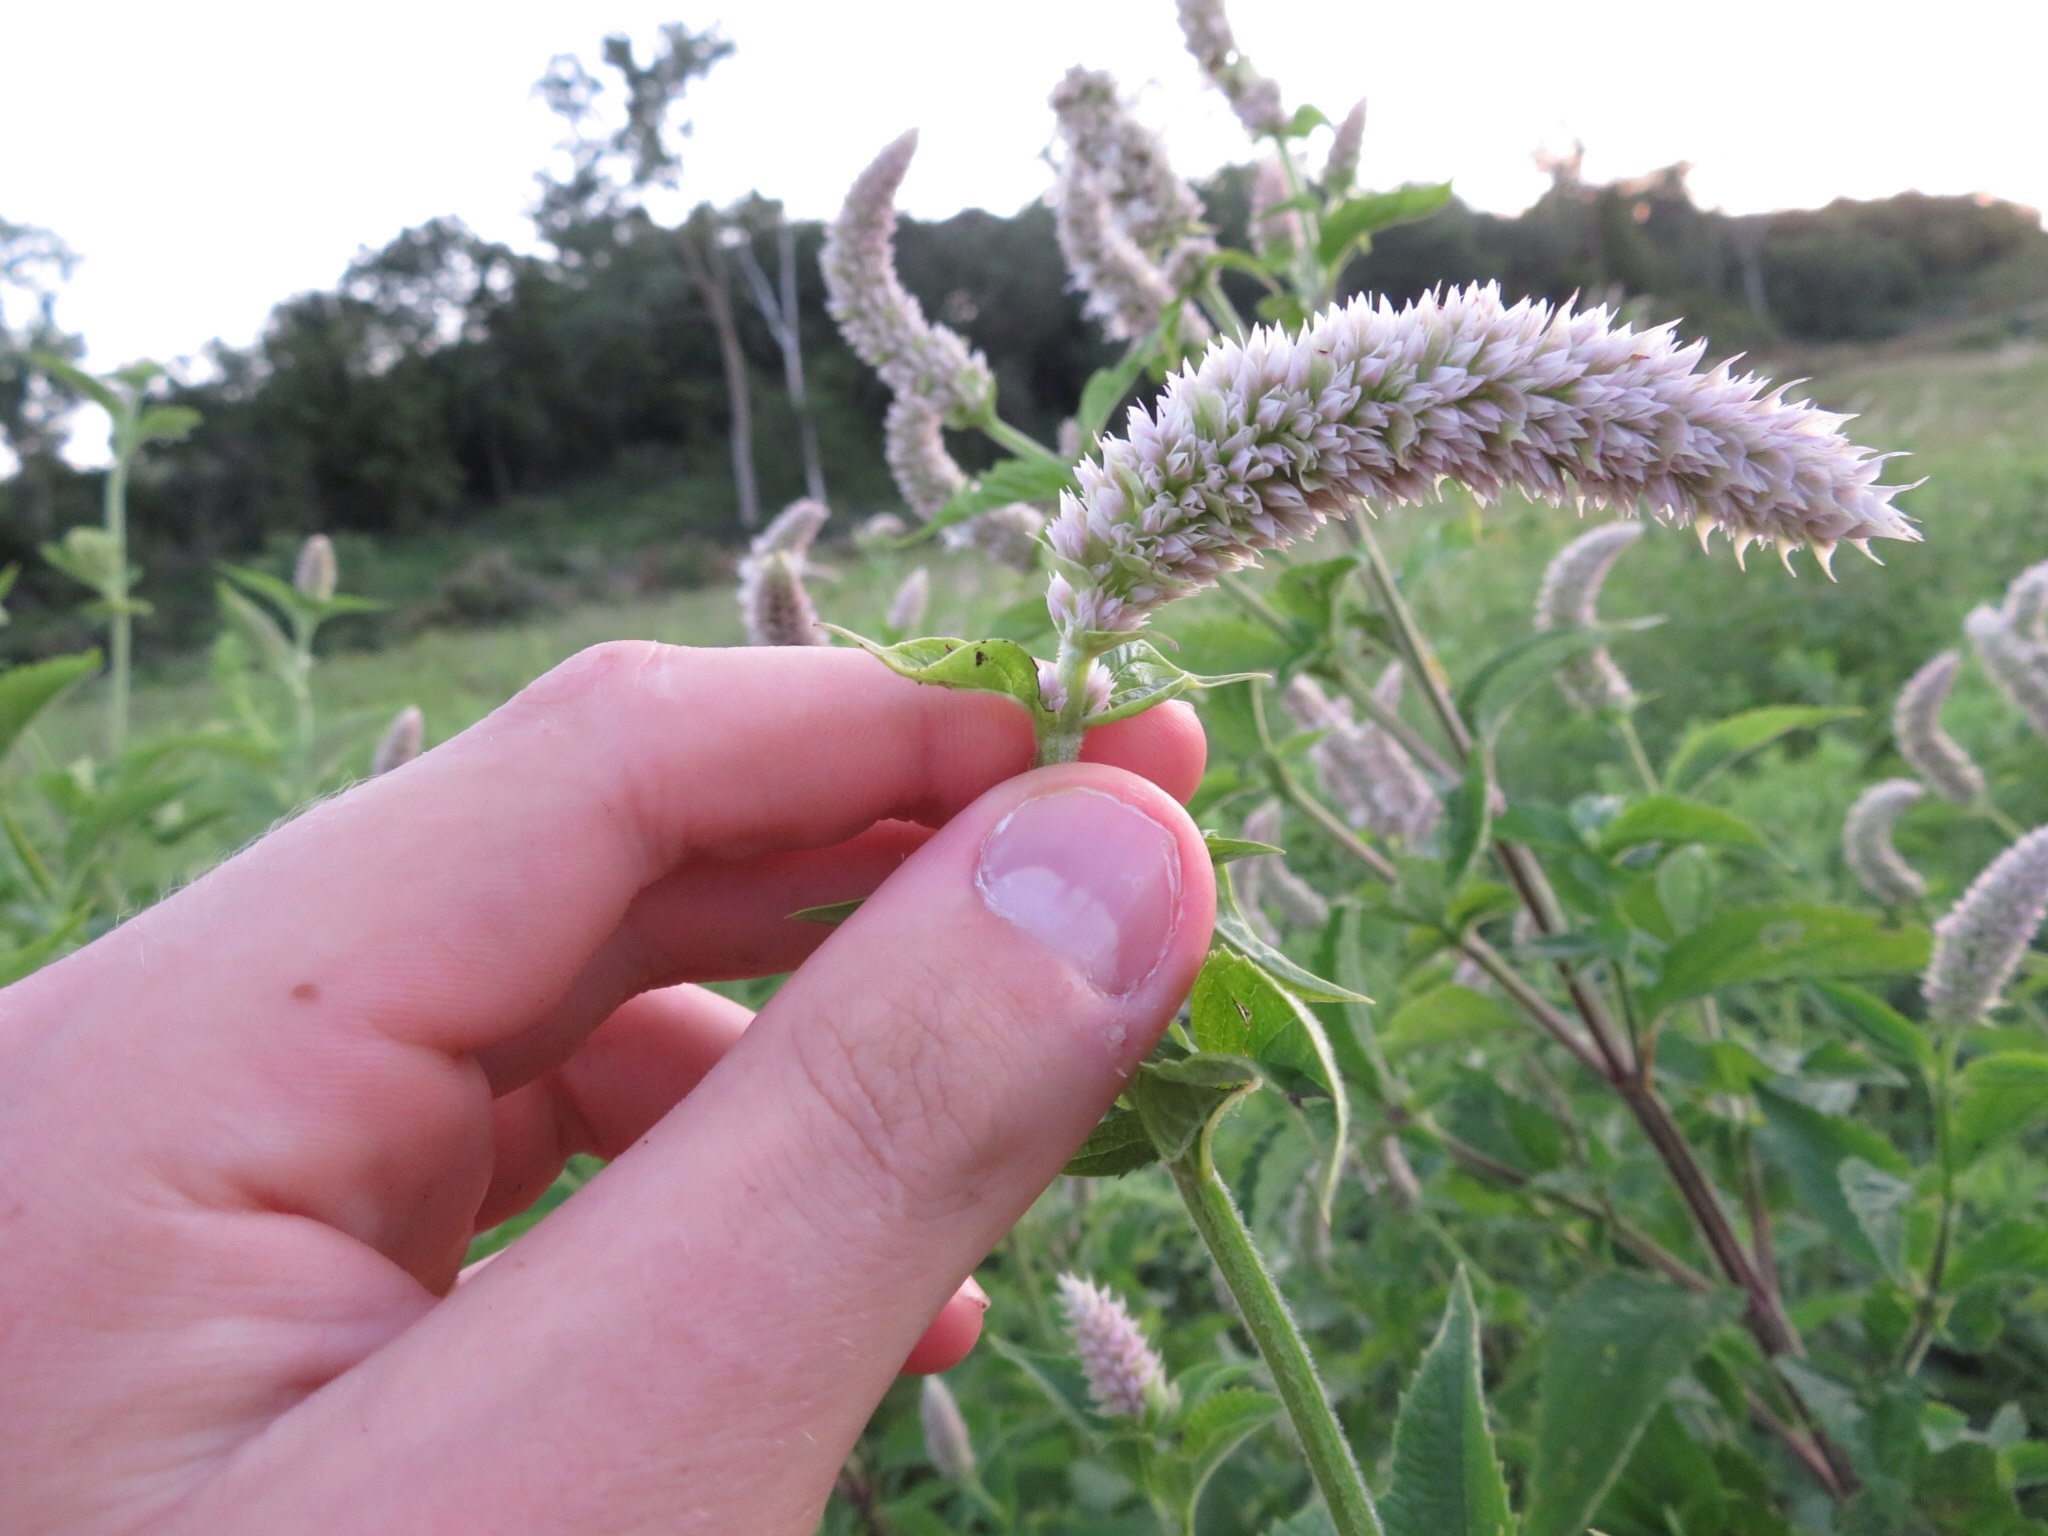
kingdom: Plantae
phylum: Tracheophyta
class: Magnoliopsida
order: Lamiales
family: Lamiaceae
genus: Agastache
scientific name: Agastache scrophulariifolia
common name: Figwort giant hyssop
